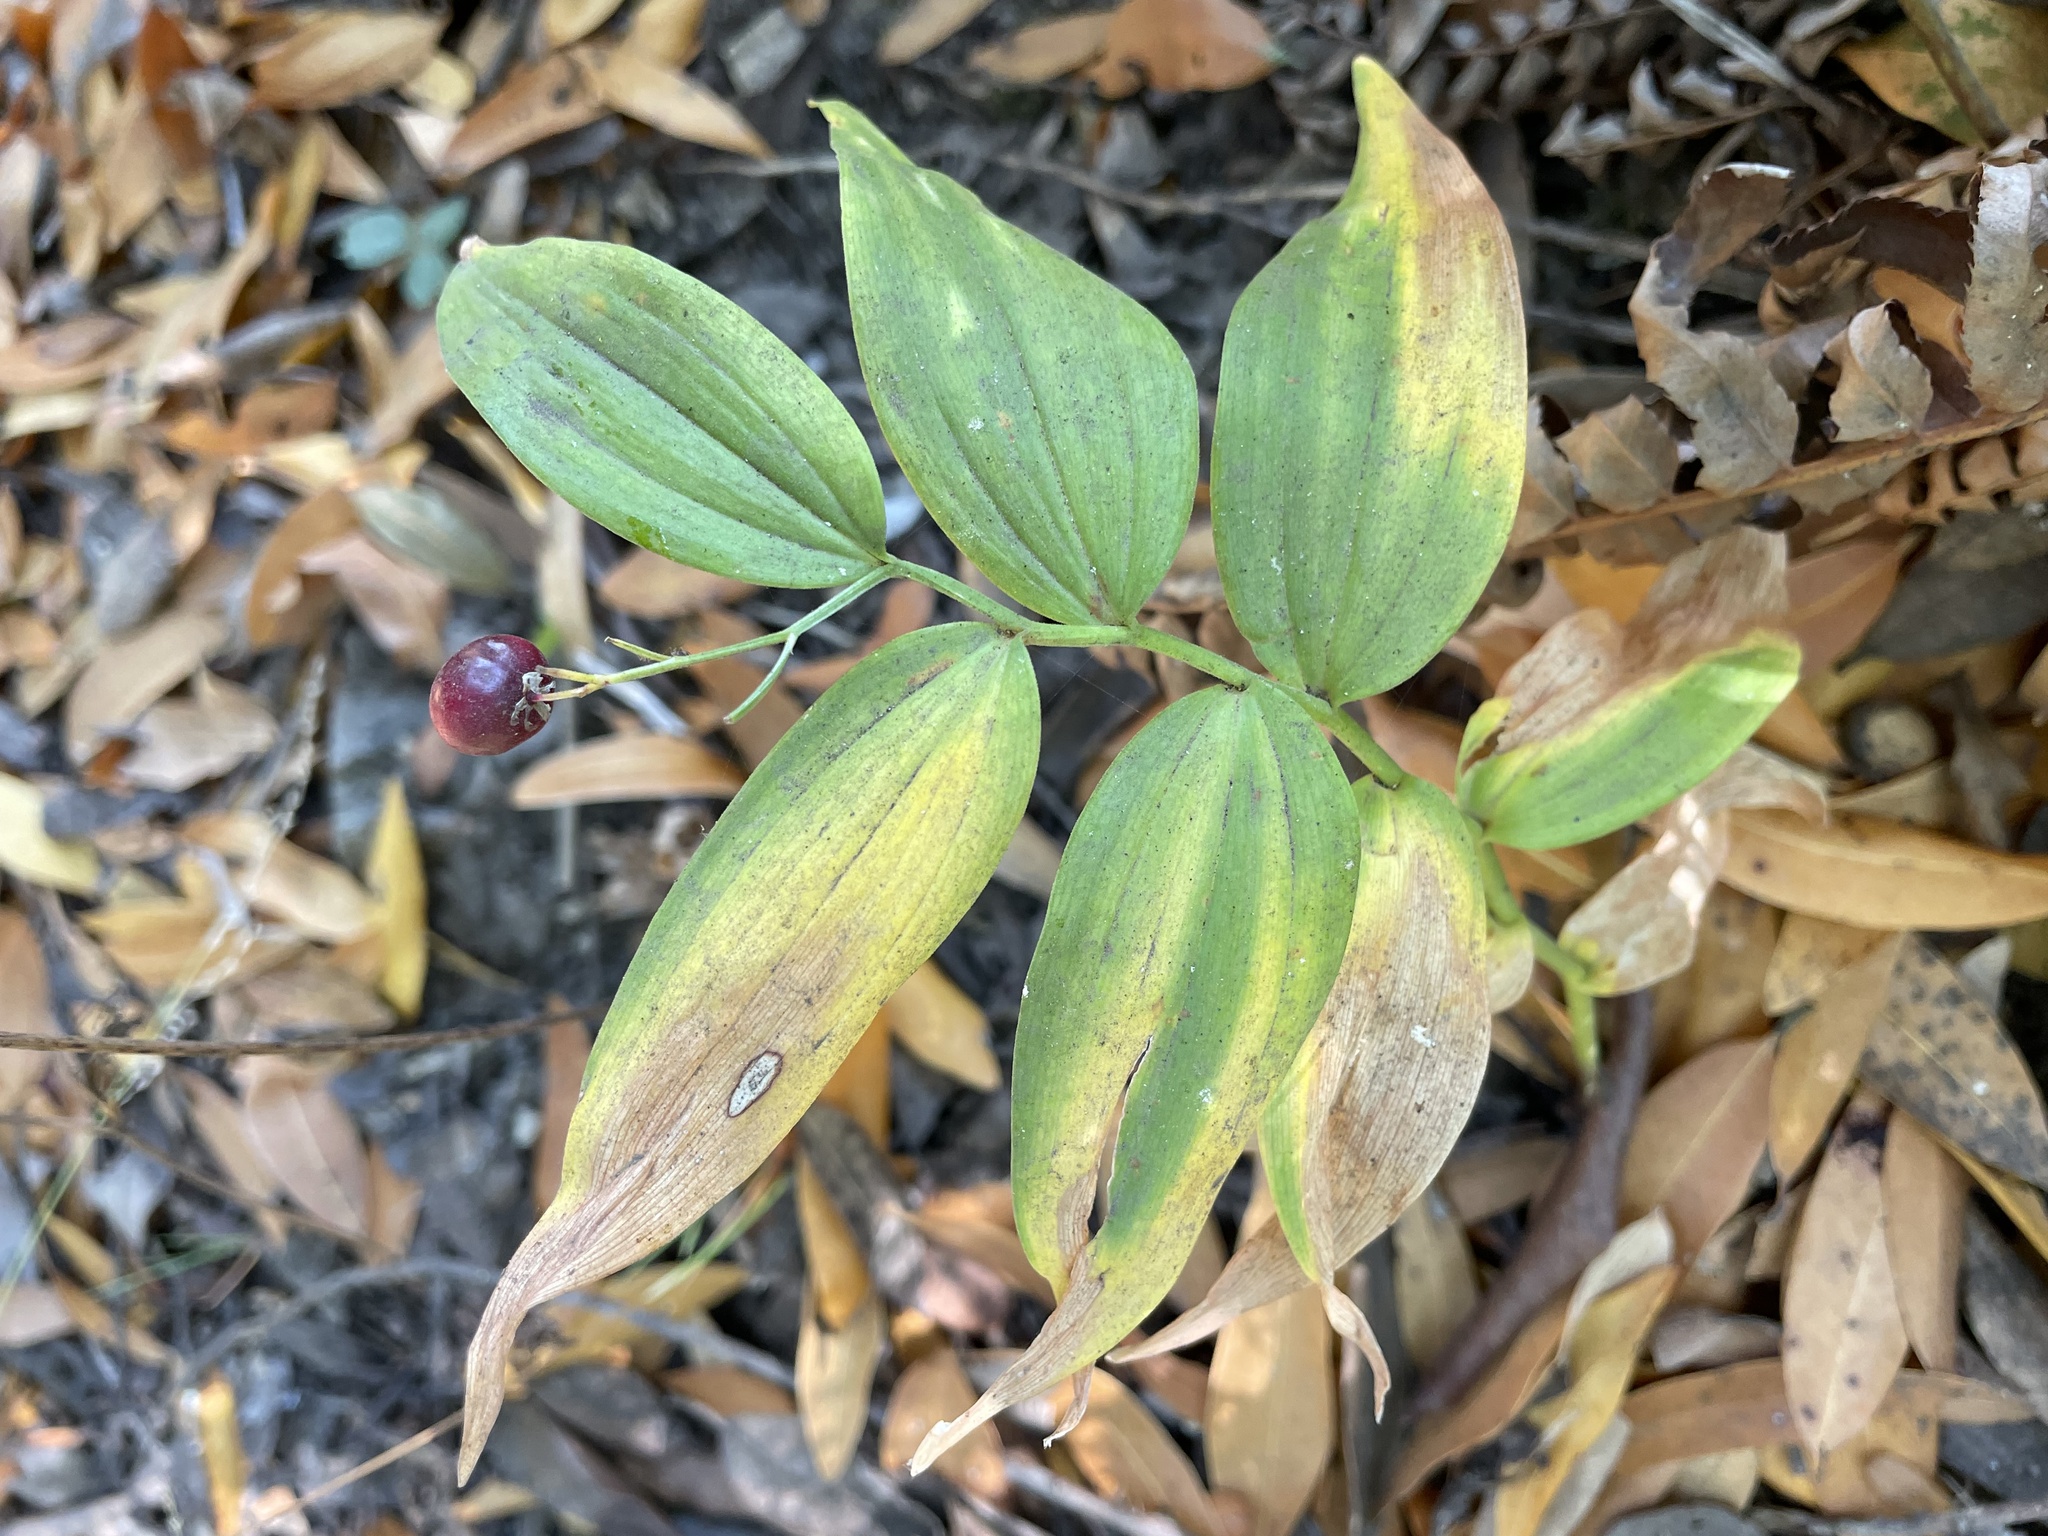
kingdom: Plantae
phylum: Tracheophyta
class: Liliopsida
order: Asparagales
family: Asparagaceae
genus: Maianthemum
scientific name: Maianthemum stellatum
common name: Little false solomon's seal
